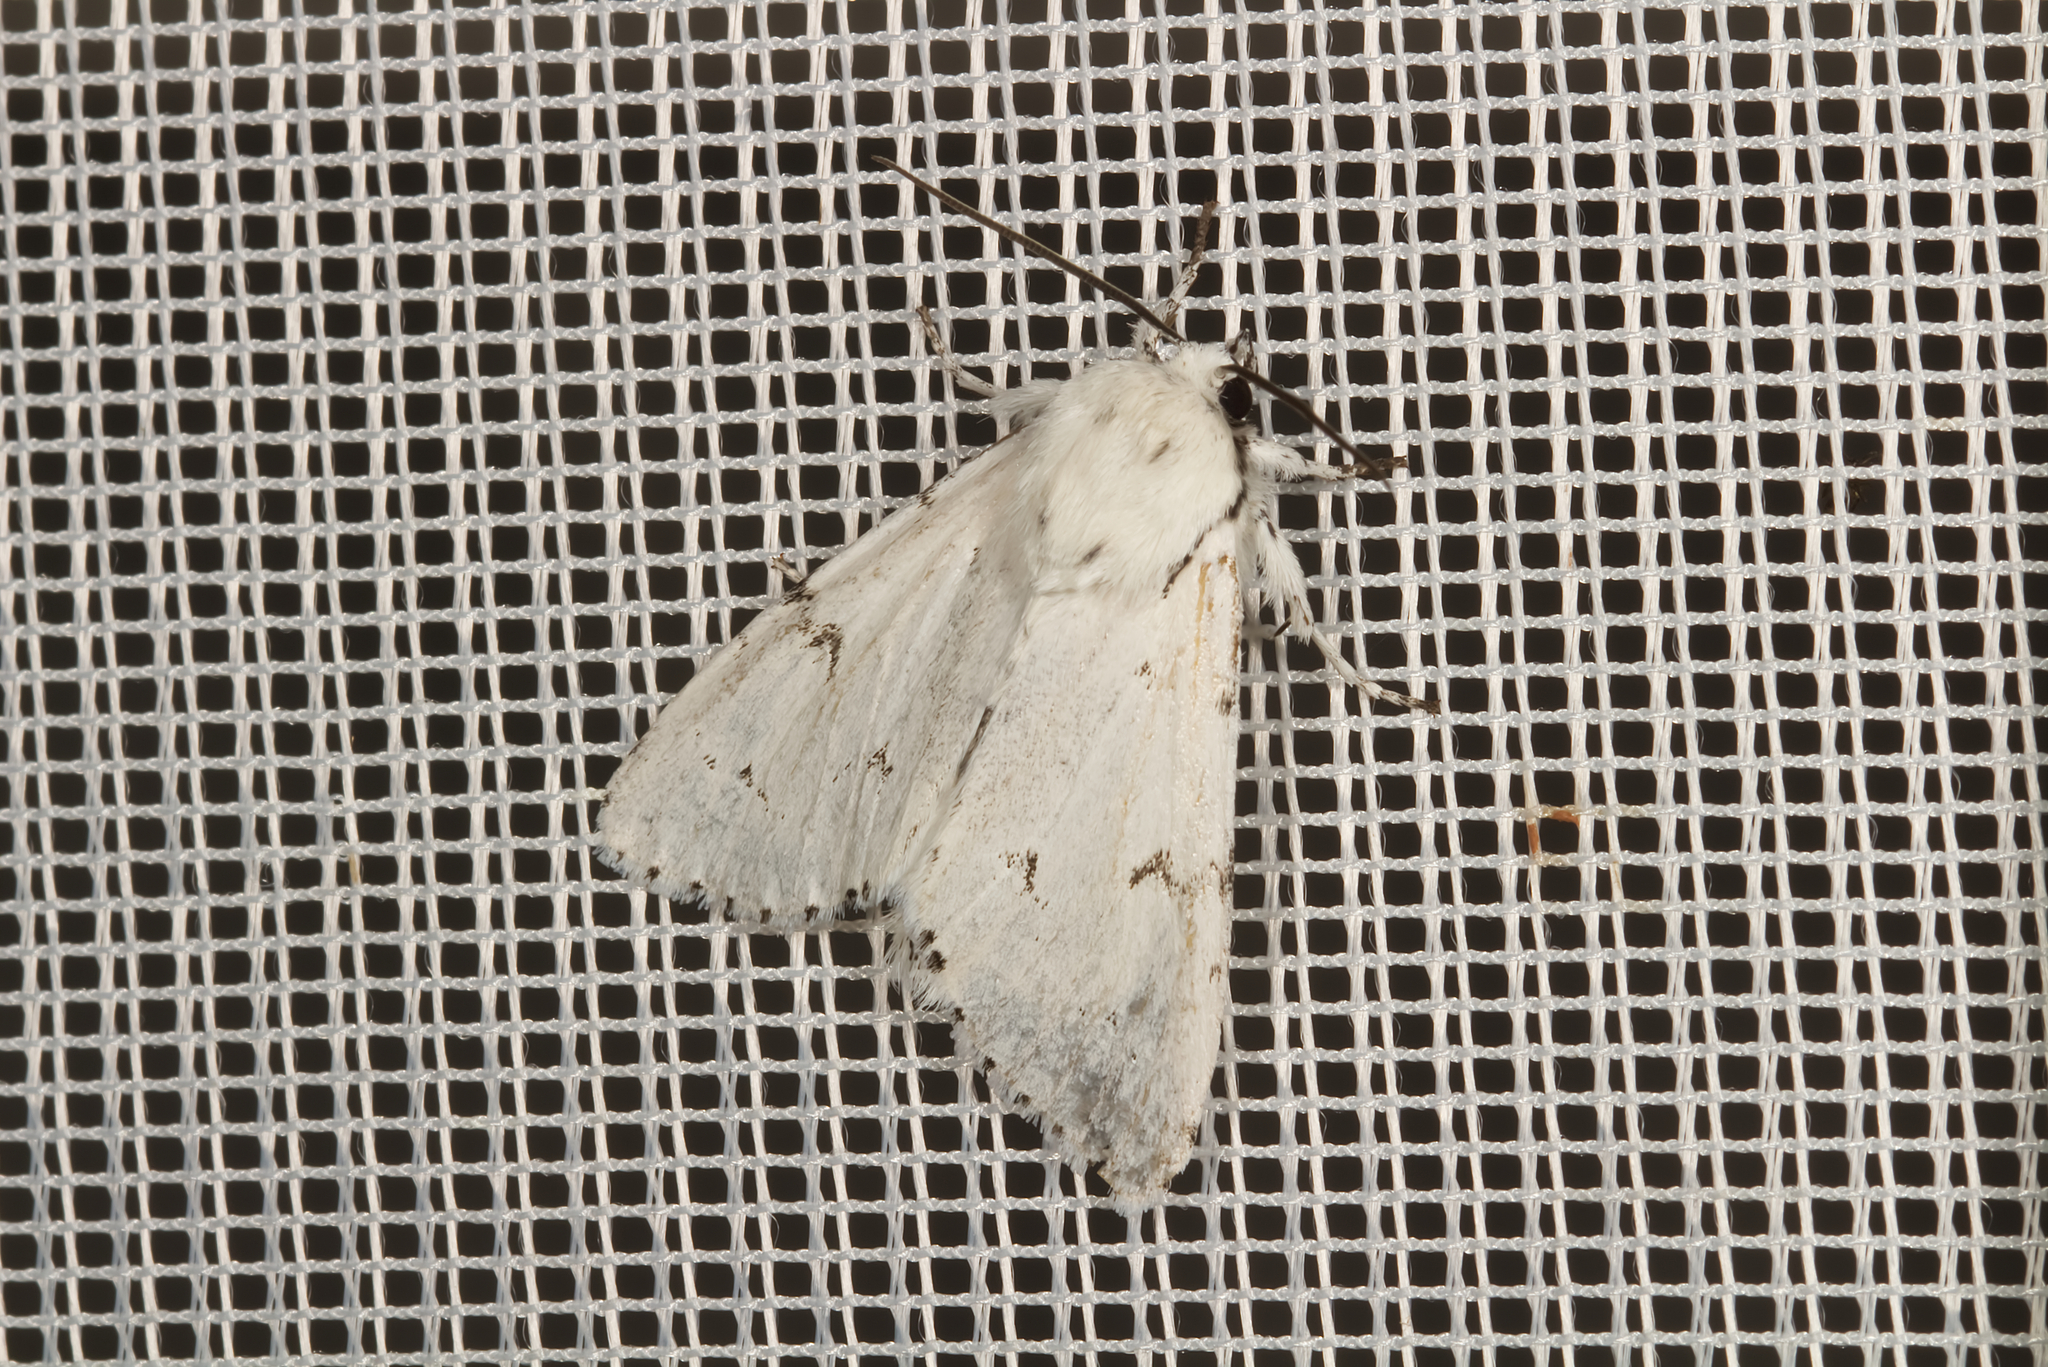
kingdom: Animalia
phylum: Arthropoda
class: Insecta
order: Lepidoptera
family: Noctuidae
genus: Acronicta
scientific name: Acronicta leporina
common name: Miller
